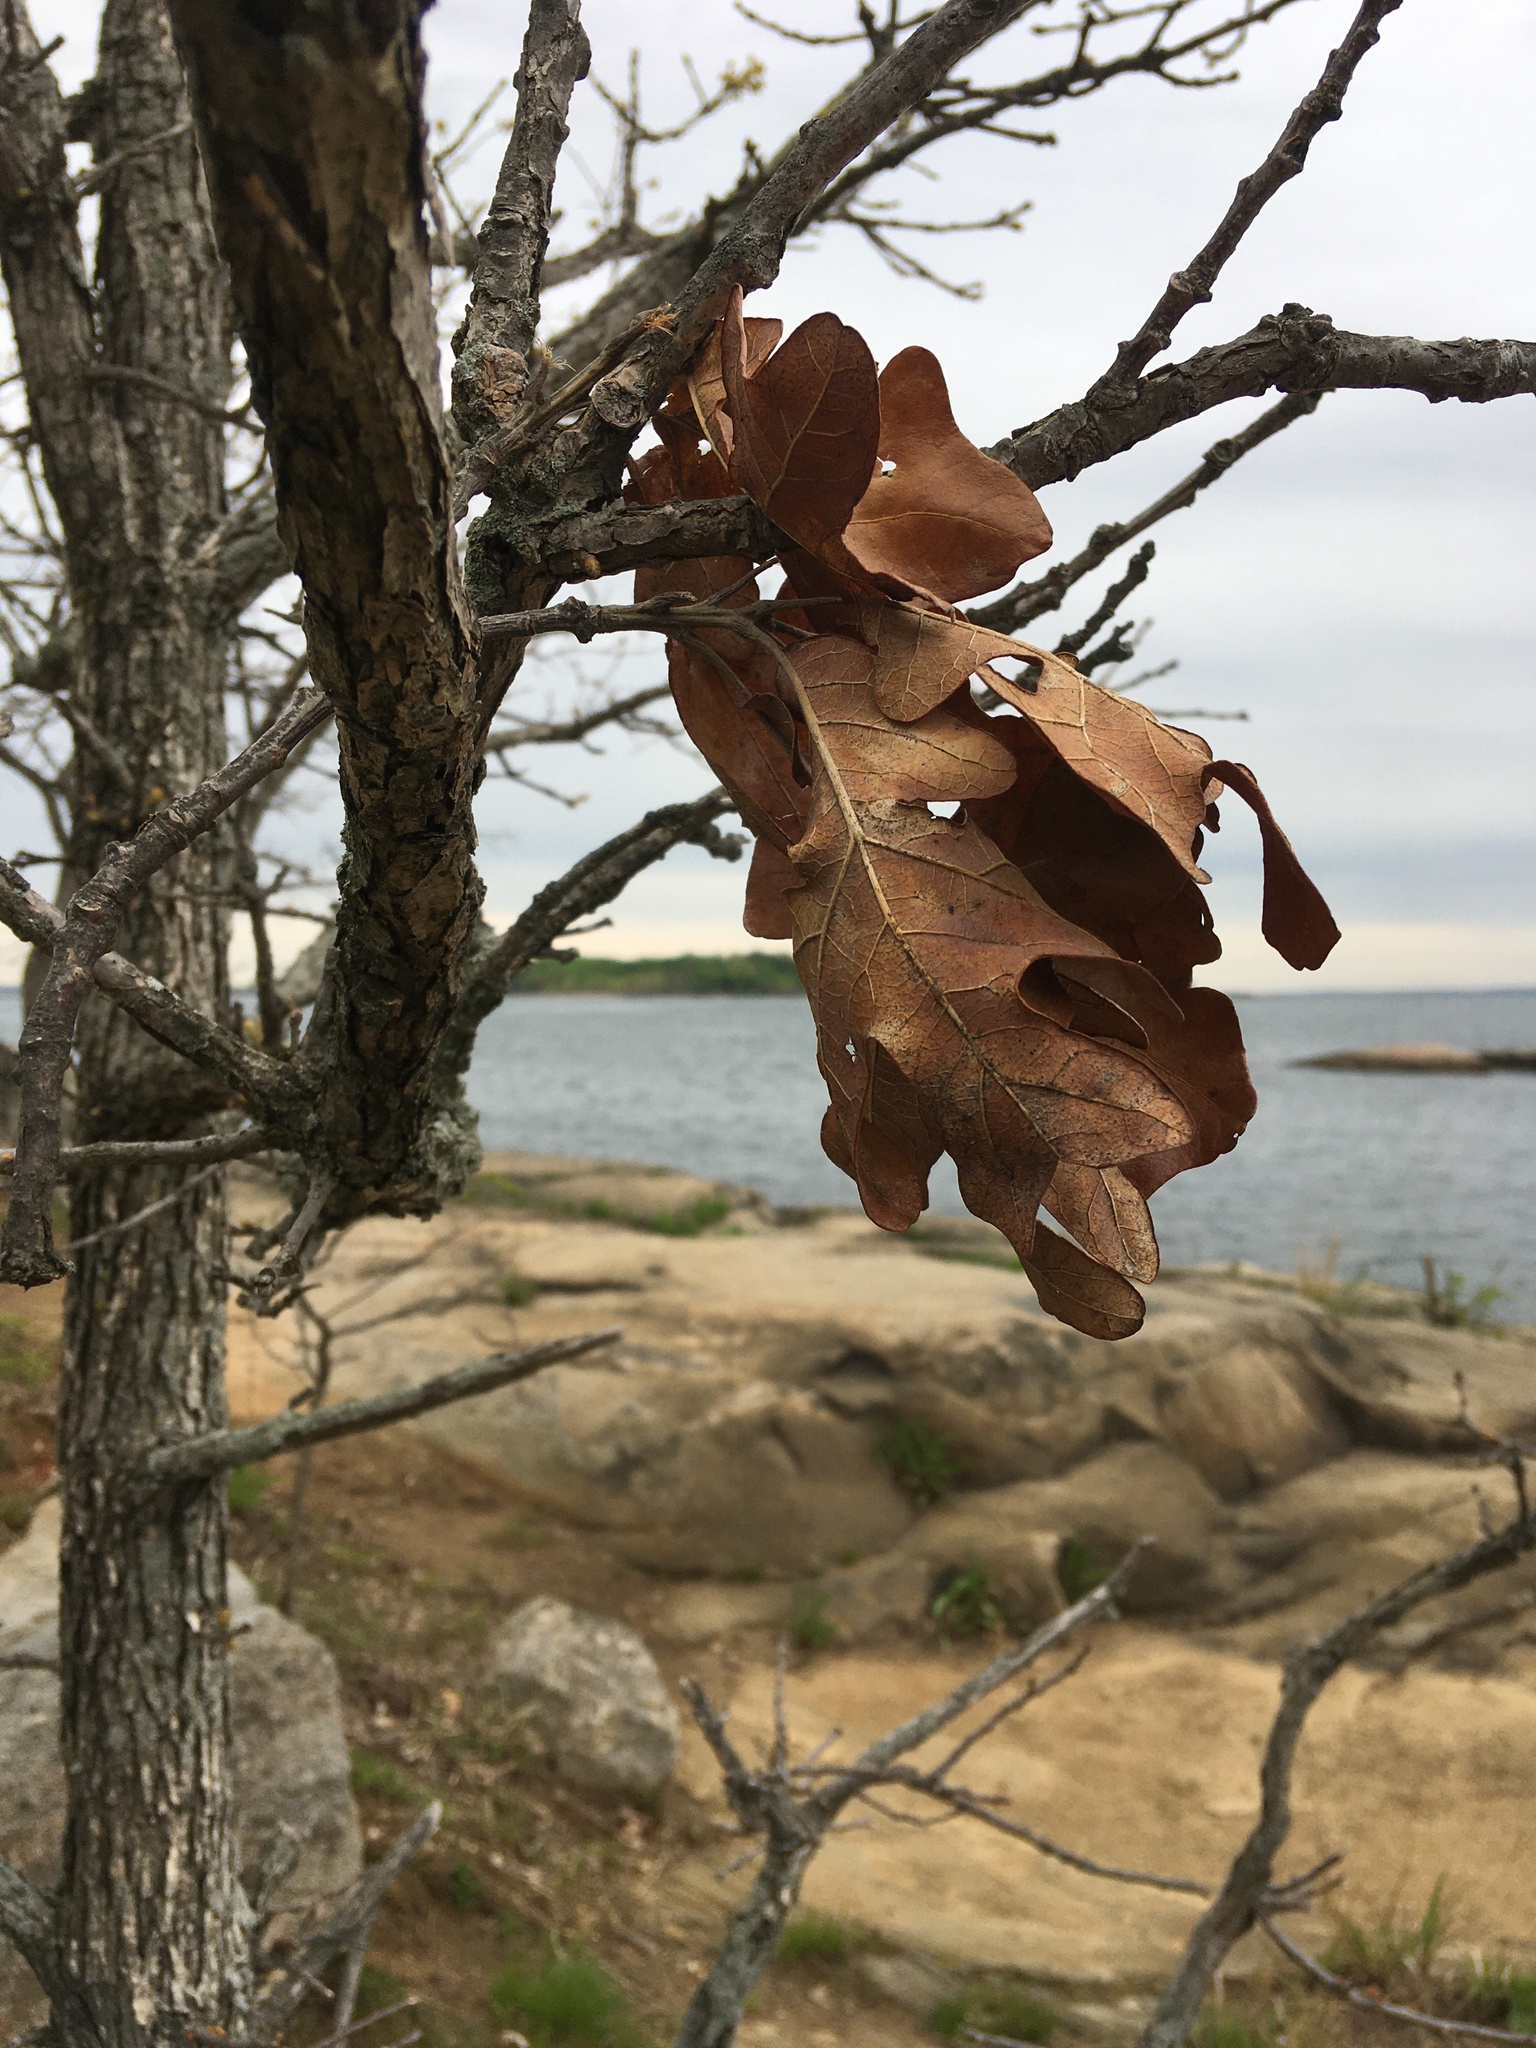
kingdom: Plantae
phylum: Tracheophyta
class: Magnoliopsida
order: Fagales
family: Fagaceae
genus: Quercus
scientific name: Quercus stellata
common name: Post oak
